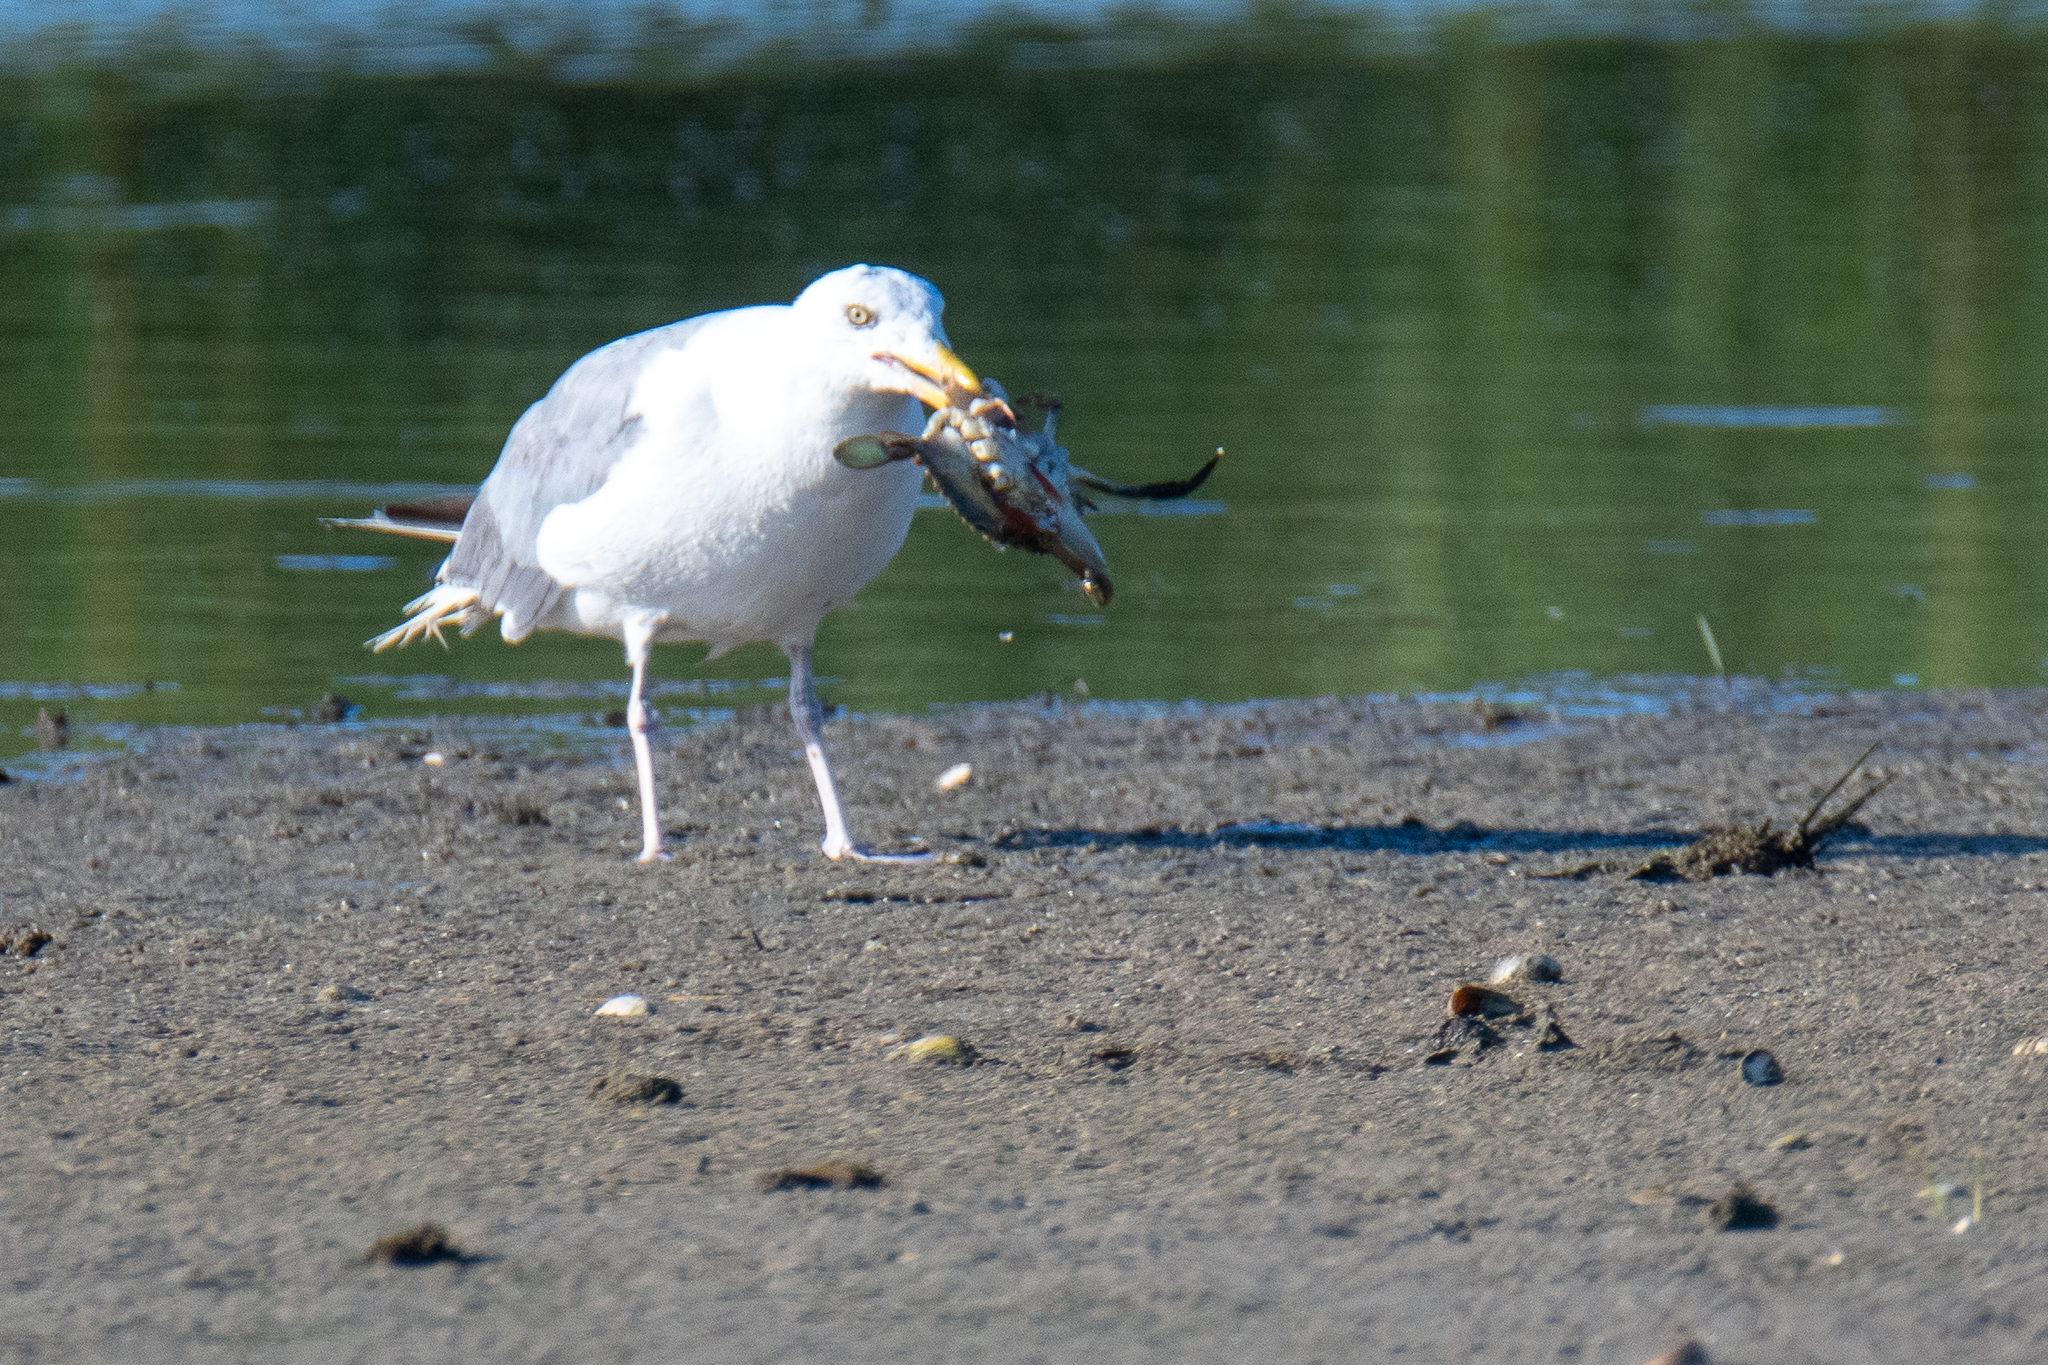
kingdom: Animalia
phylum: Arthropoda
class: Malacostraca
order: Decapoda
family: Portunidae
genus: Callinectes
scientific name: Callinectes sapidus
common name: Blue crab
